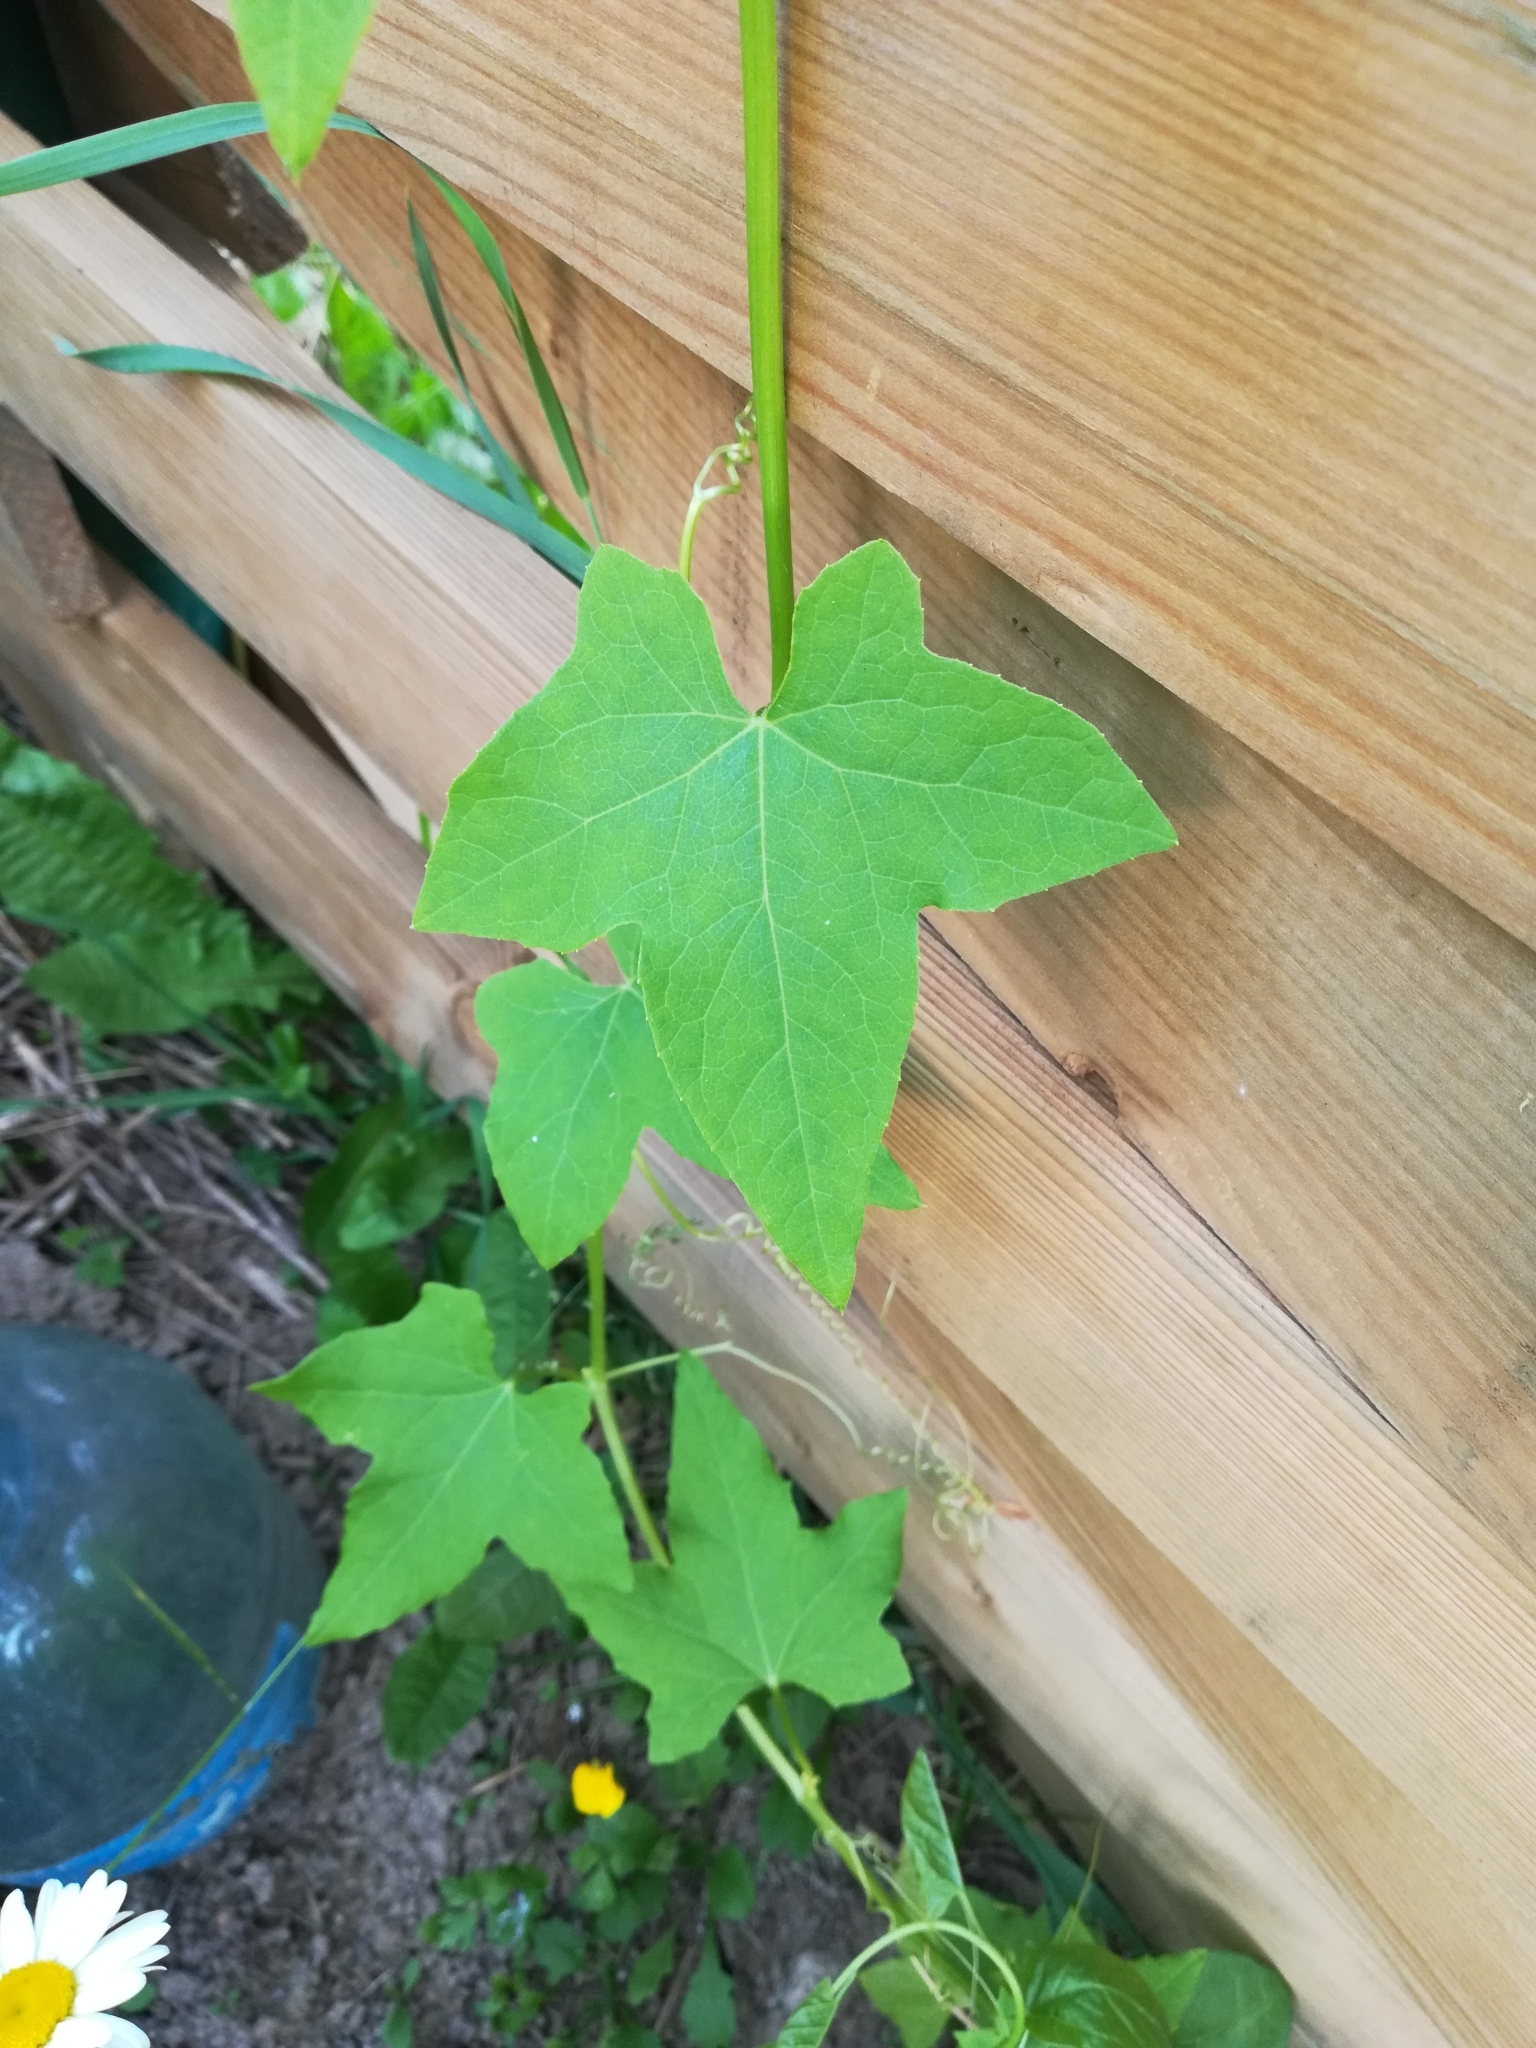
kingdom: Plantae
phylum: Tracheophyta
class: Magnoliopsida
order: Cucurbitales
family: Cucurbitaceae
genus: Echinocystis
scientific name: Echinocystis lobata
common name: Wild cucumber
